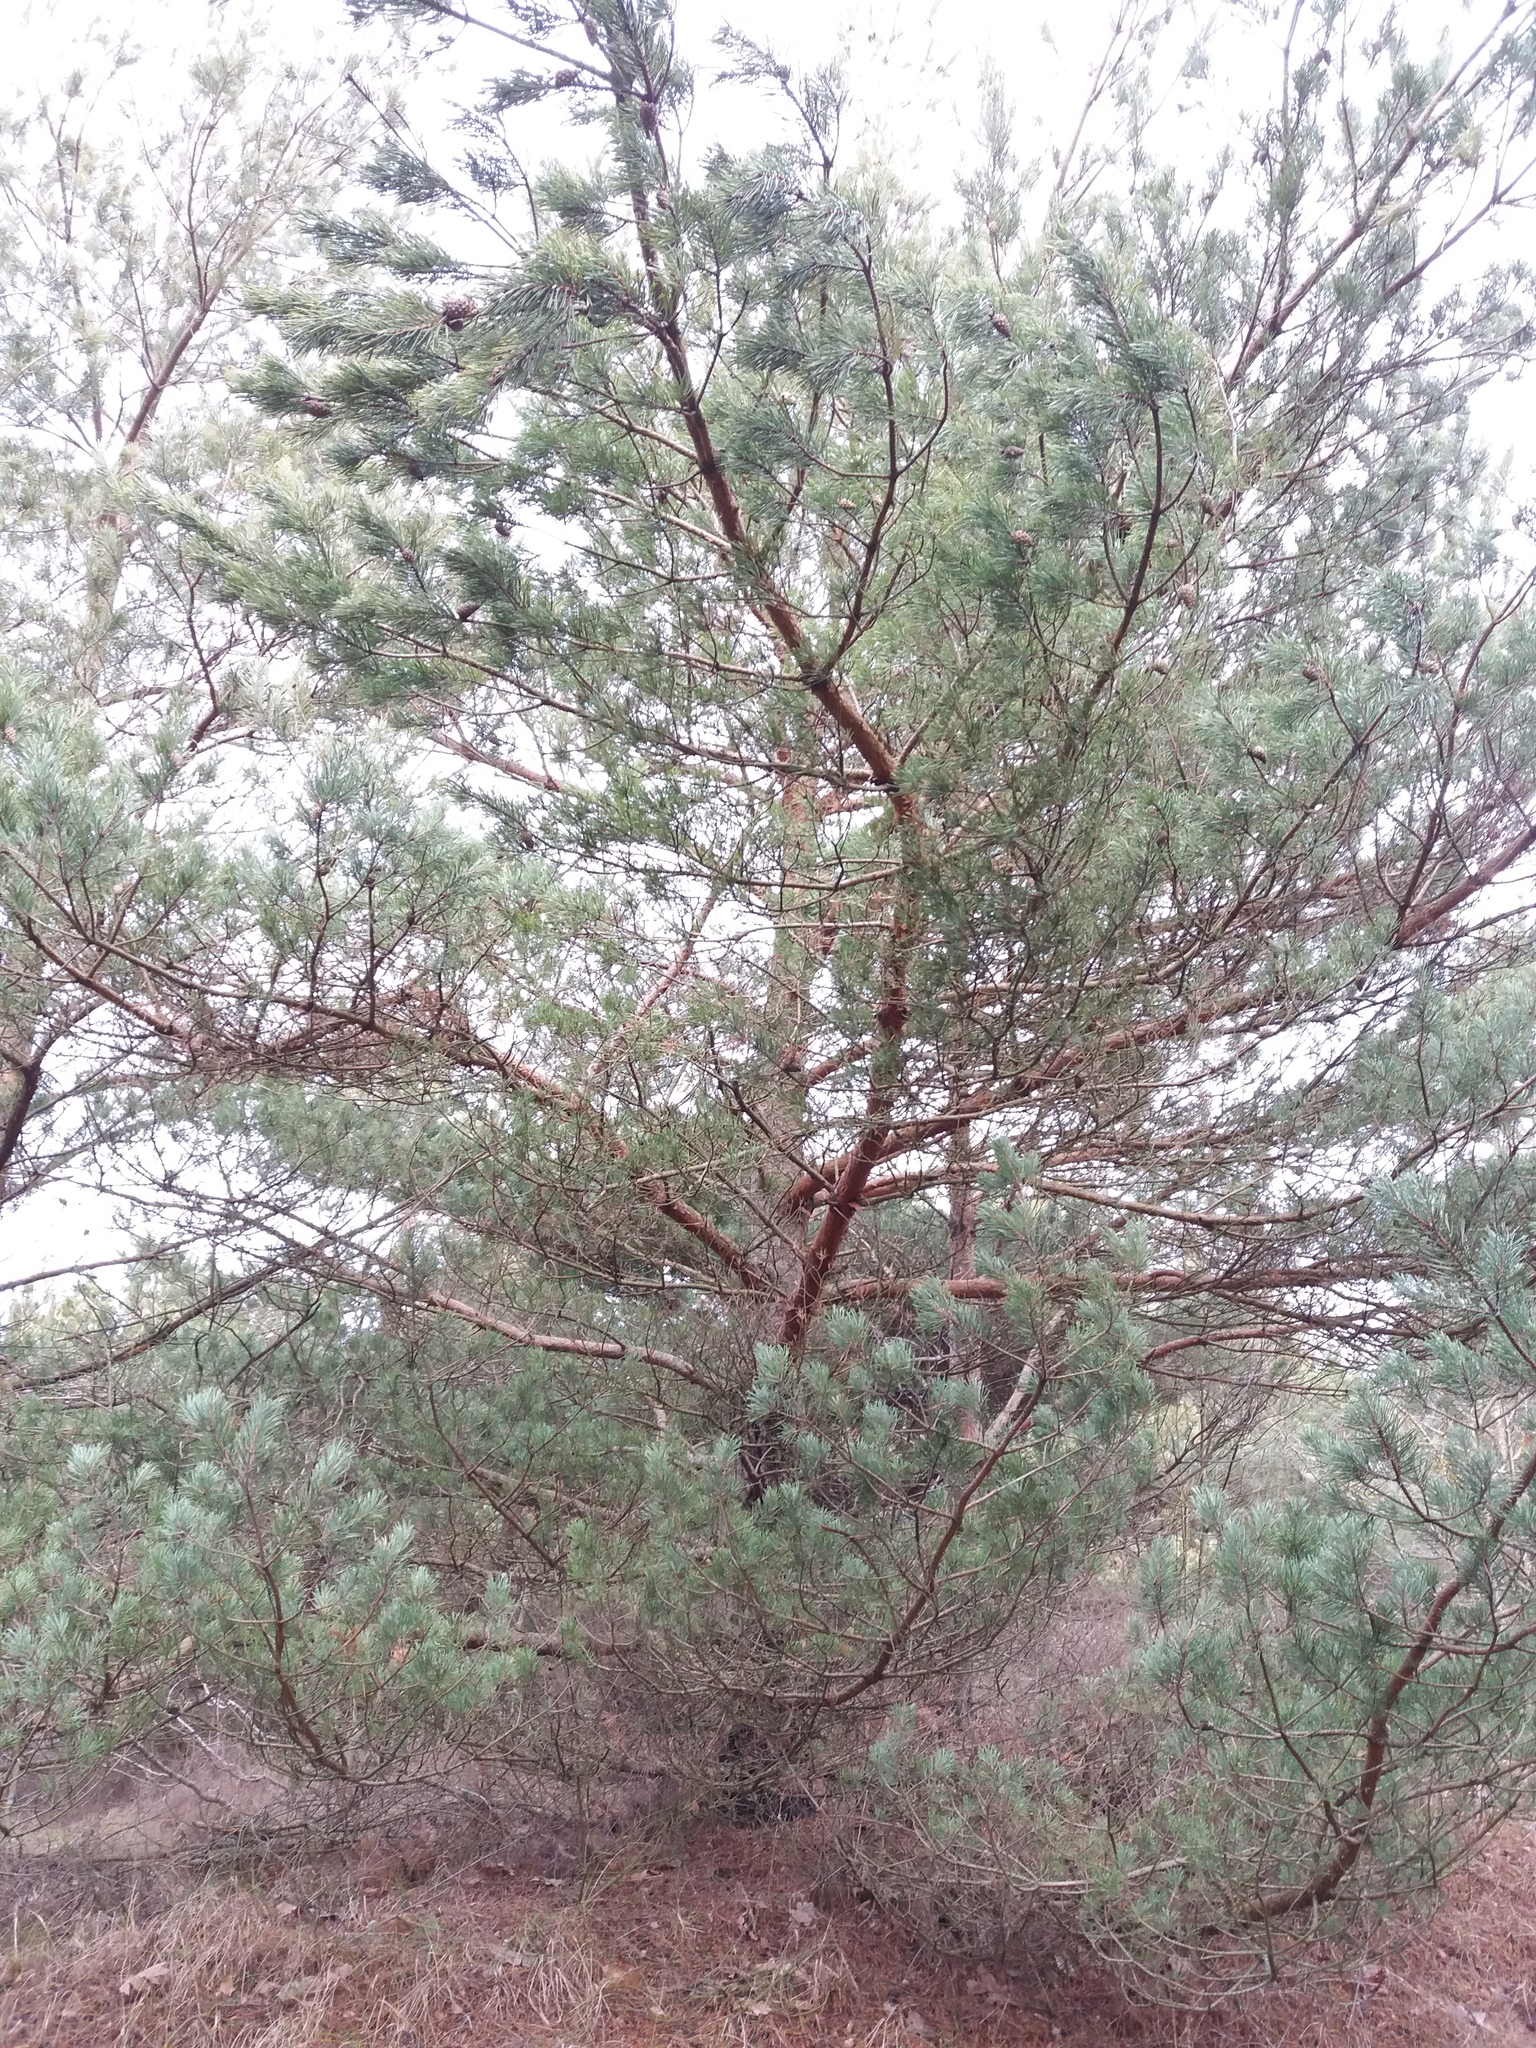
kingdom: Plantae
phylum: Tracheophyta
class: Pinopsida
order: Pinales
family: Pinaceae
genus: Pinus
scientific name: Pinus sylvestris
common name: Scots pine
